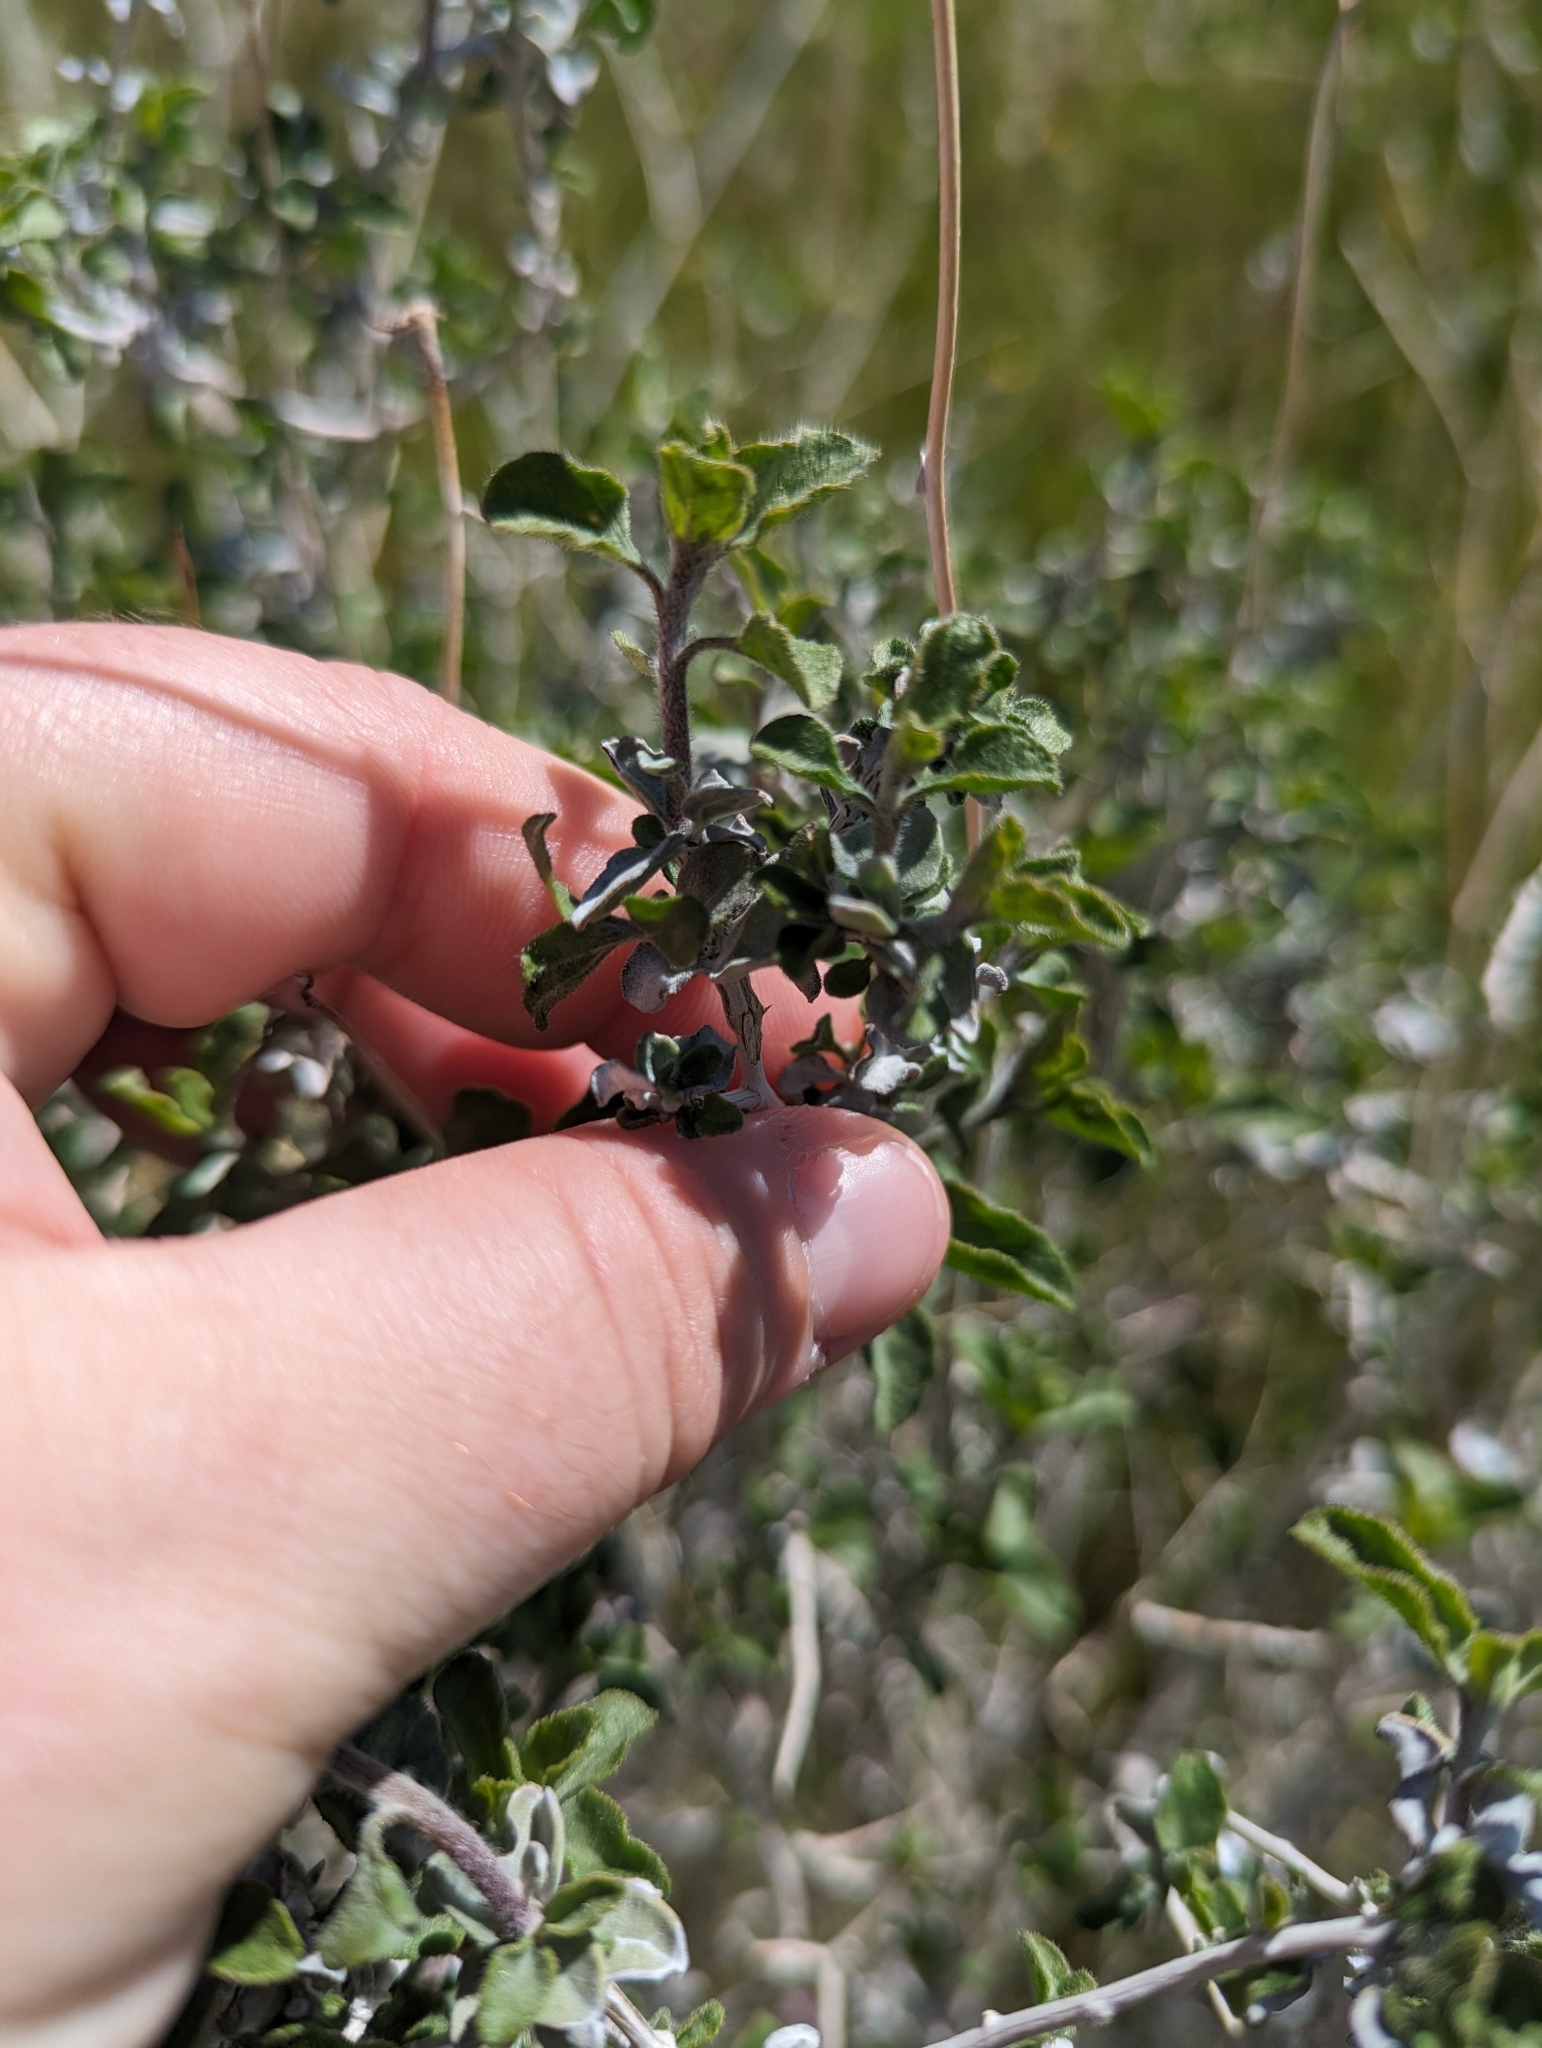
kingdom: Plantae
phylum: Tracheophyta
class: Magnoliopsida
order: Asterales
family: Asteraceae
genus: Encelia
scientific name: Encelia virginensis
